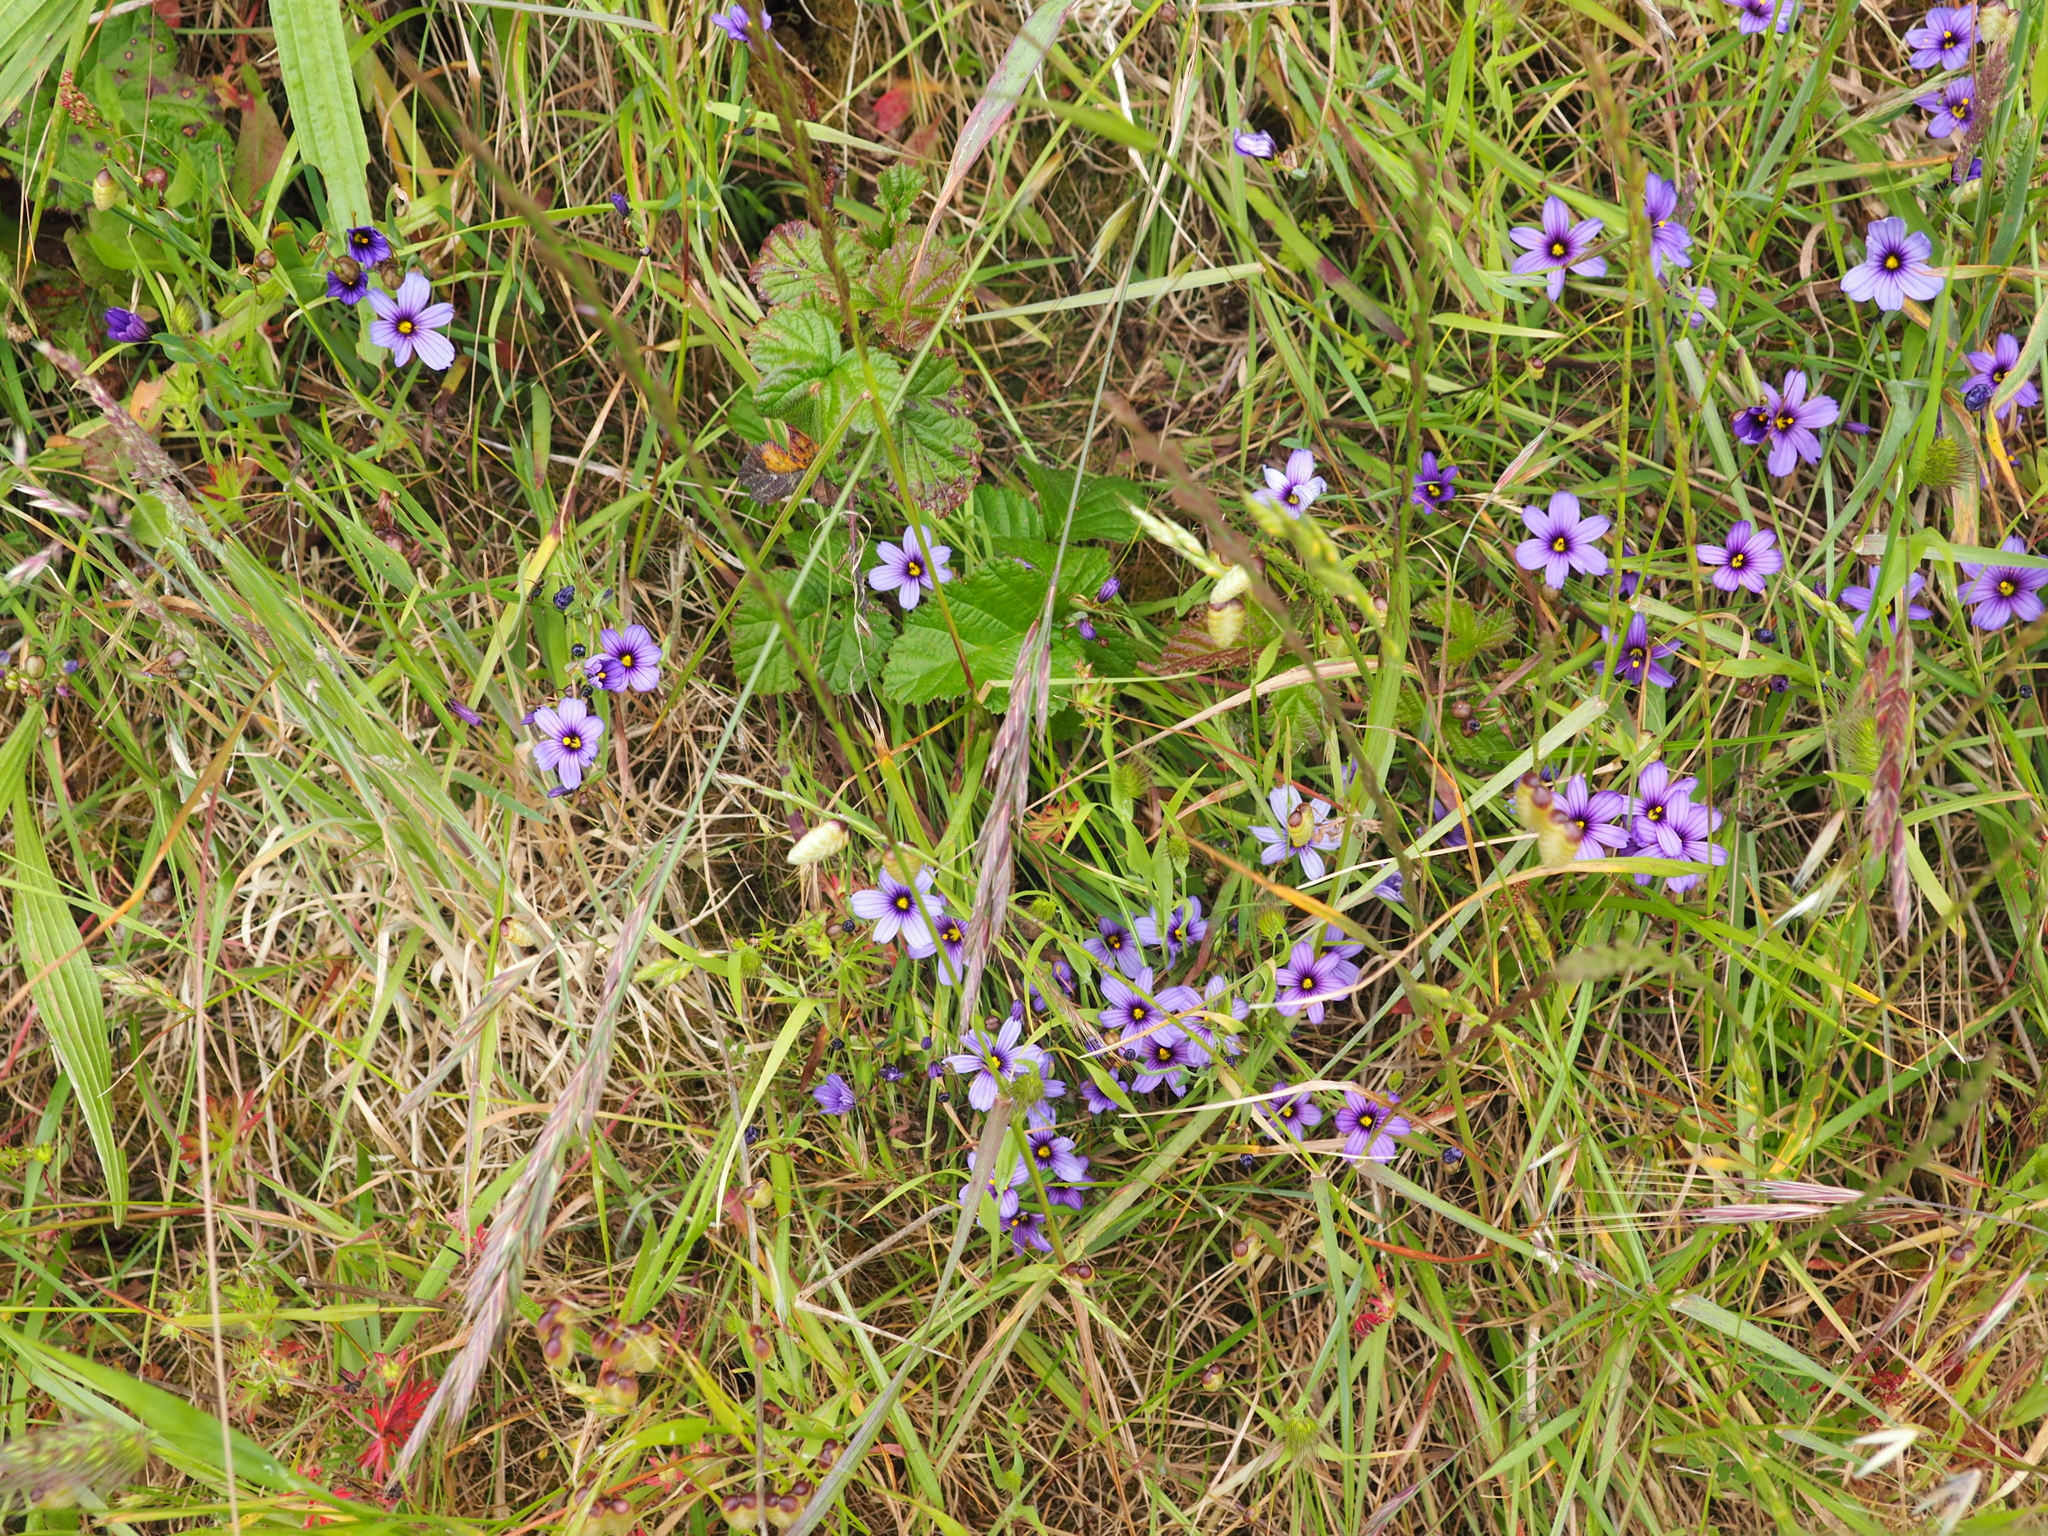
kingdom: Plantae
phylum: Tracheophyta
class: Liliopsida
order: Asparagales
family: Iridaceae
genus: Sisyrinchium
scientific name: Sisyrinchium bellum
